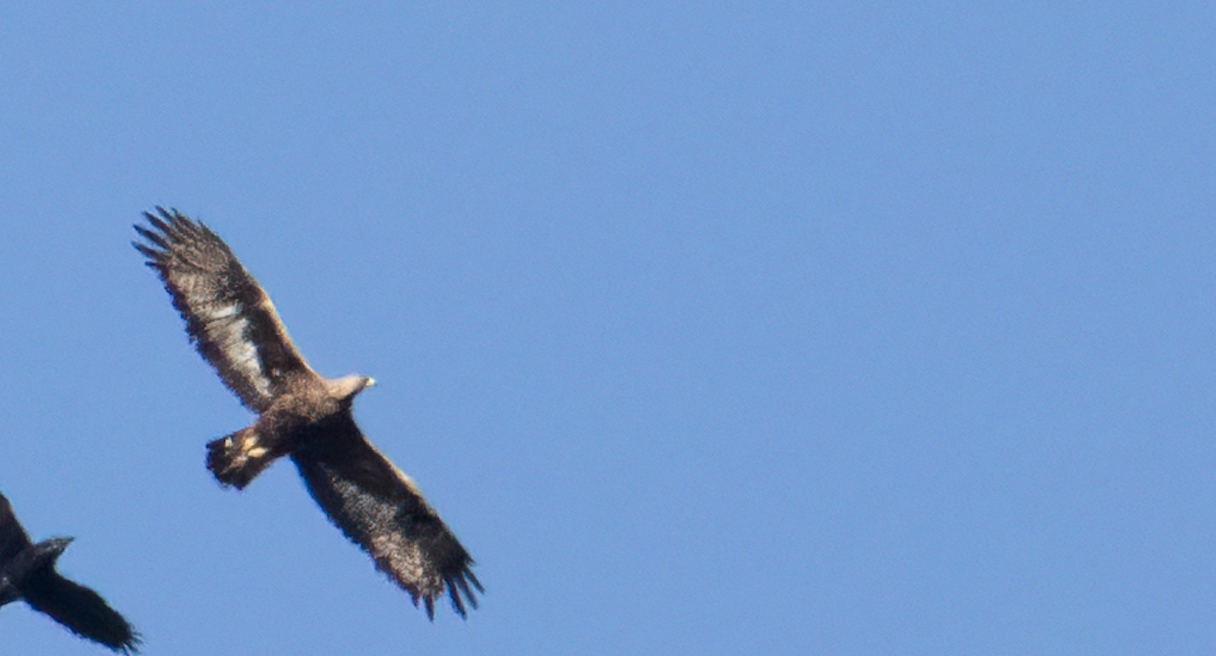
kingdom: Animalia
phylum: Chordata
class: Aves
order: Accipitriformes
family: Accipitridae
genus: Aquila
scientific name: Aquila chrysaetos
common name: Golden eagle
